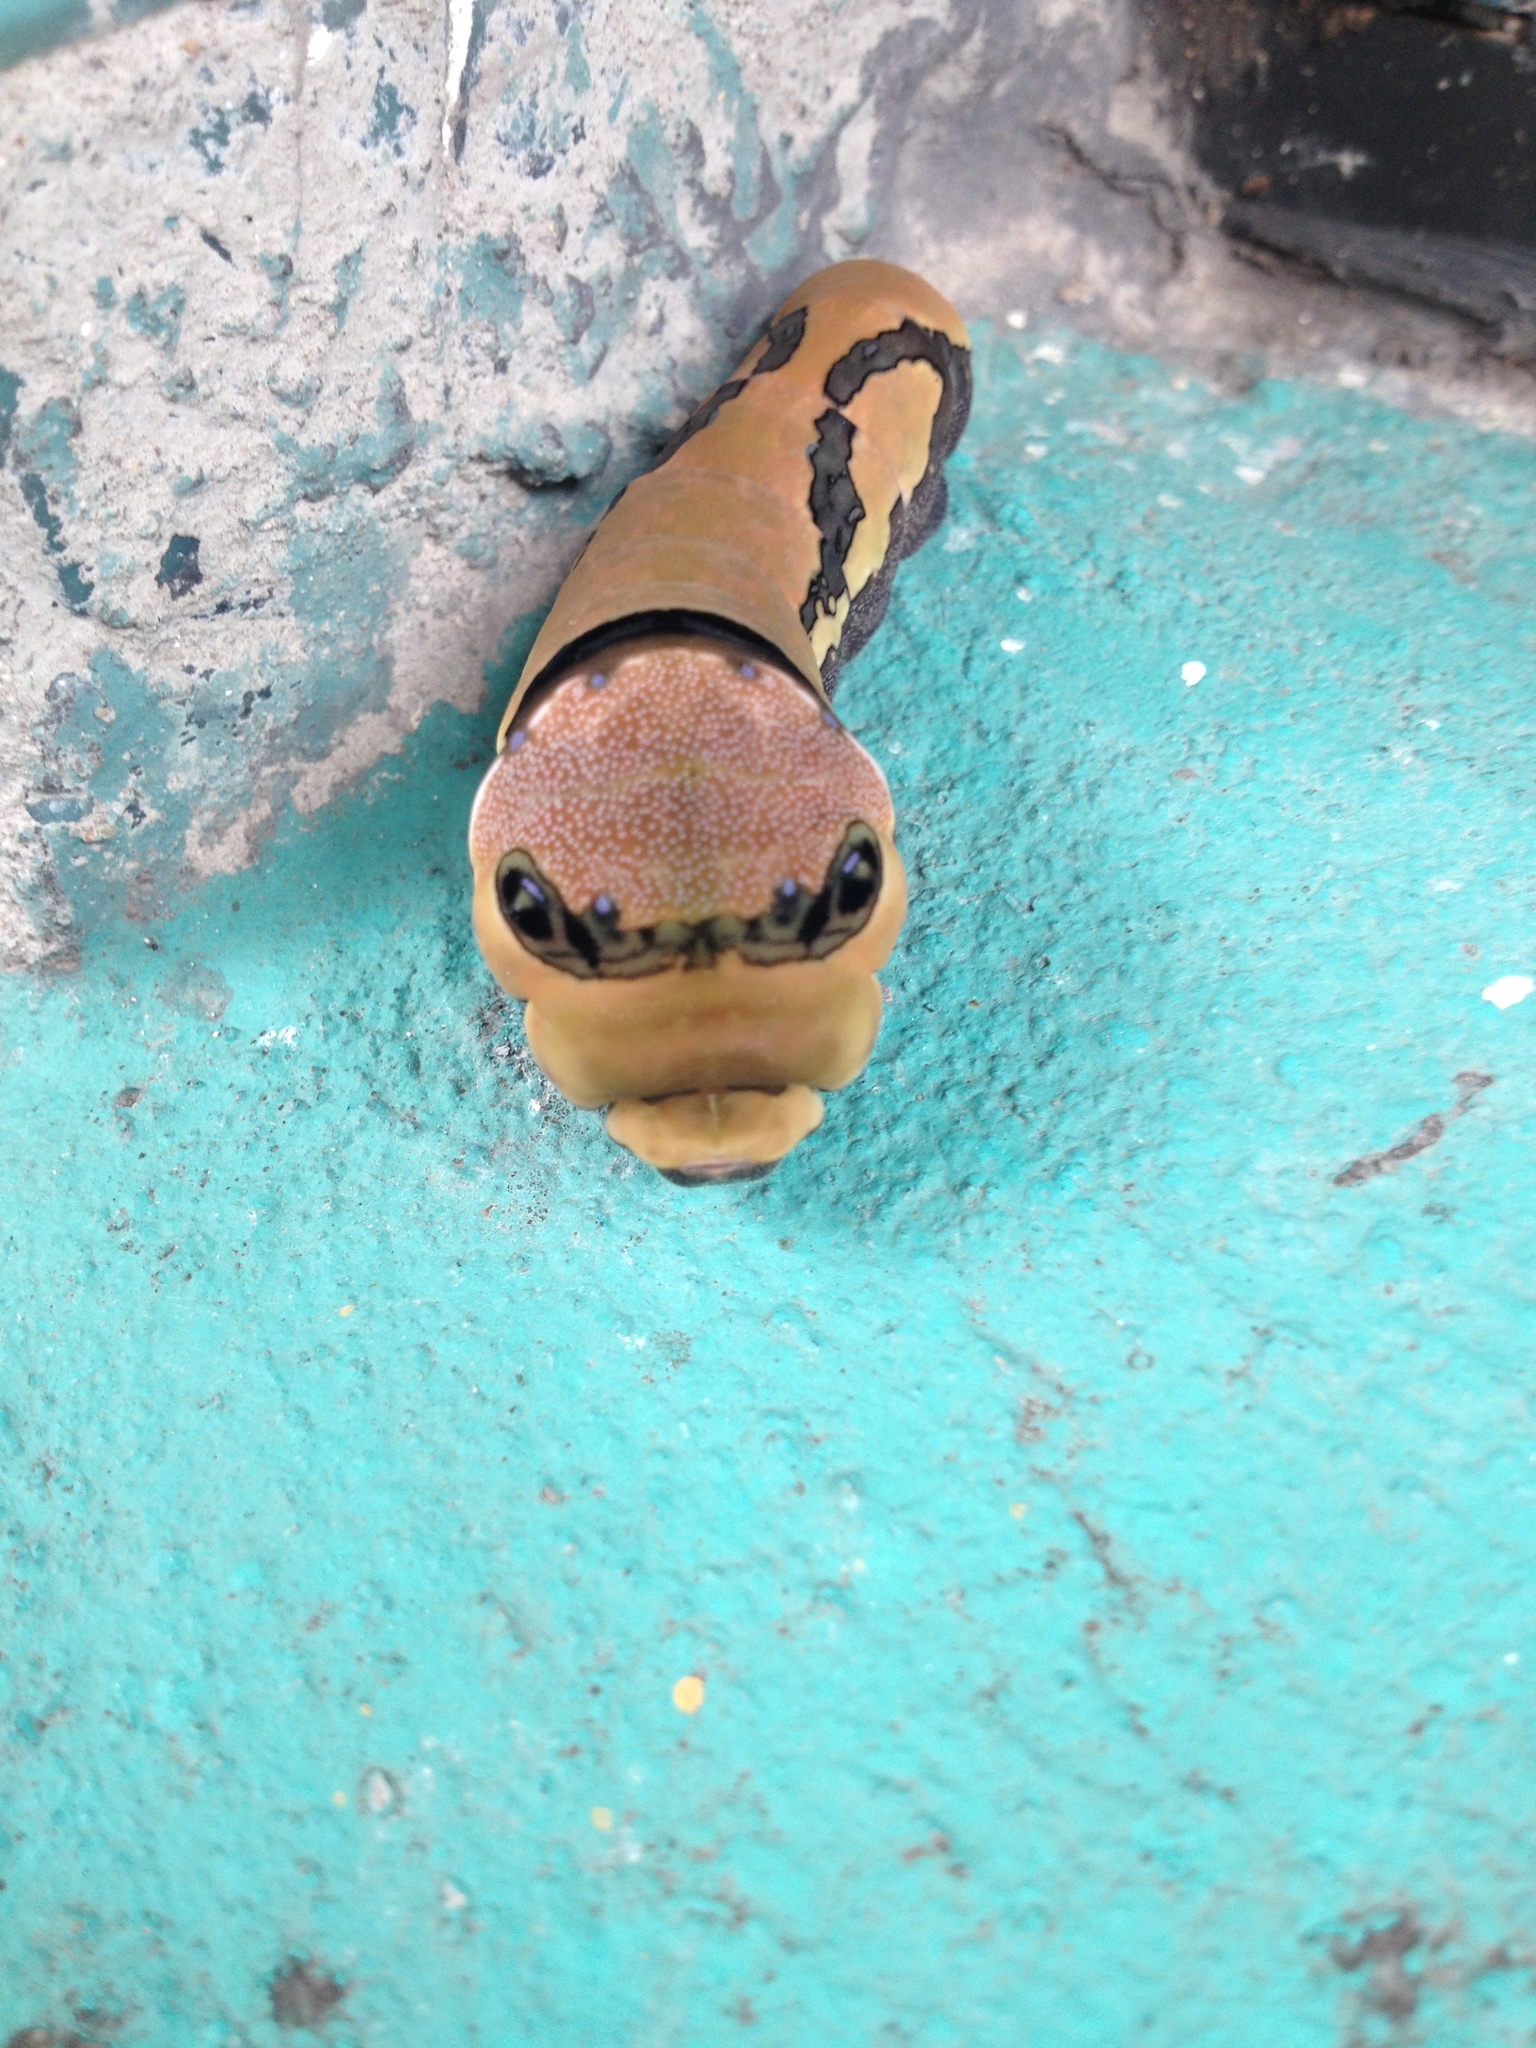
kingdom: Animalia
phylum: Arthropoda
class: Insecta
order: Lepidoptera
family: Papilionidae
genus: Papilio
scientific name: Papilio garamas
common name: Magnificent swallowtail
